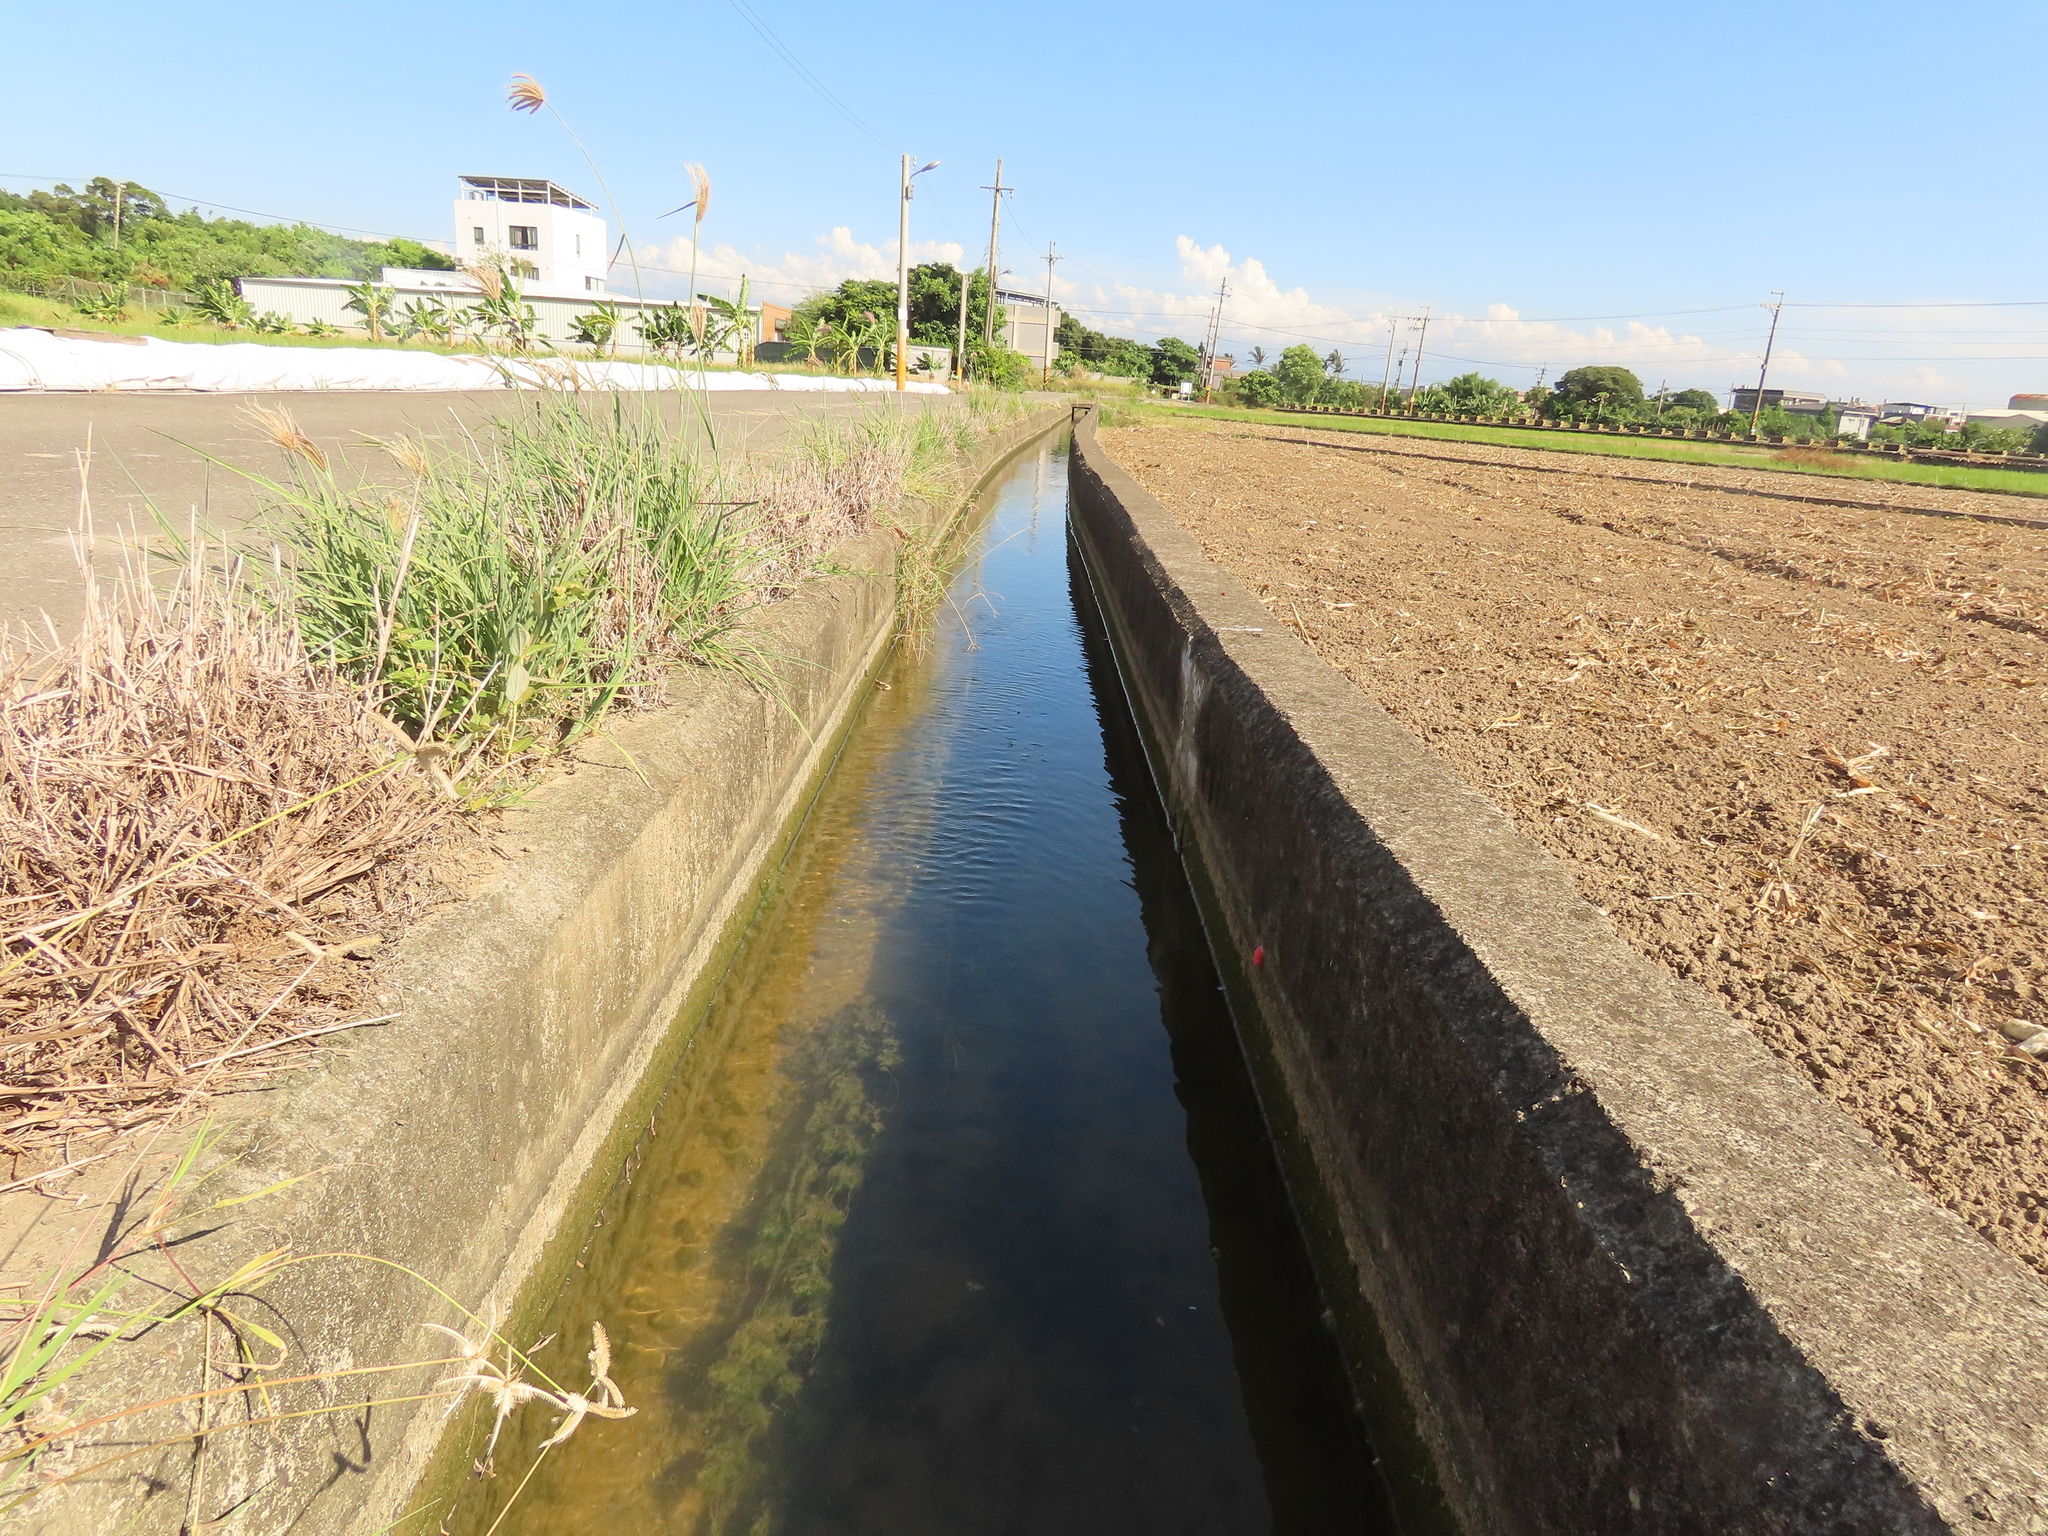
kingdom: Plantae
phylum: Tracheophyta
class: Magnoliopsida
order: Saxifragales
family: Haloragaceae
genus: Myriophyllum
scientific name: Myriophyllum spicatum
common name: Spiked water-milfoil
